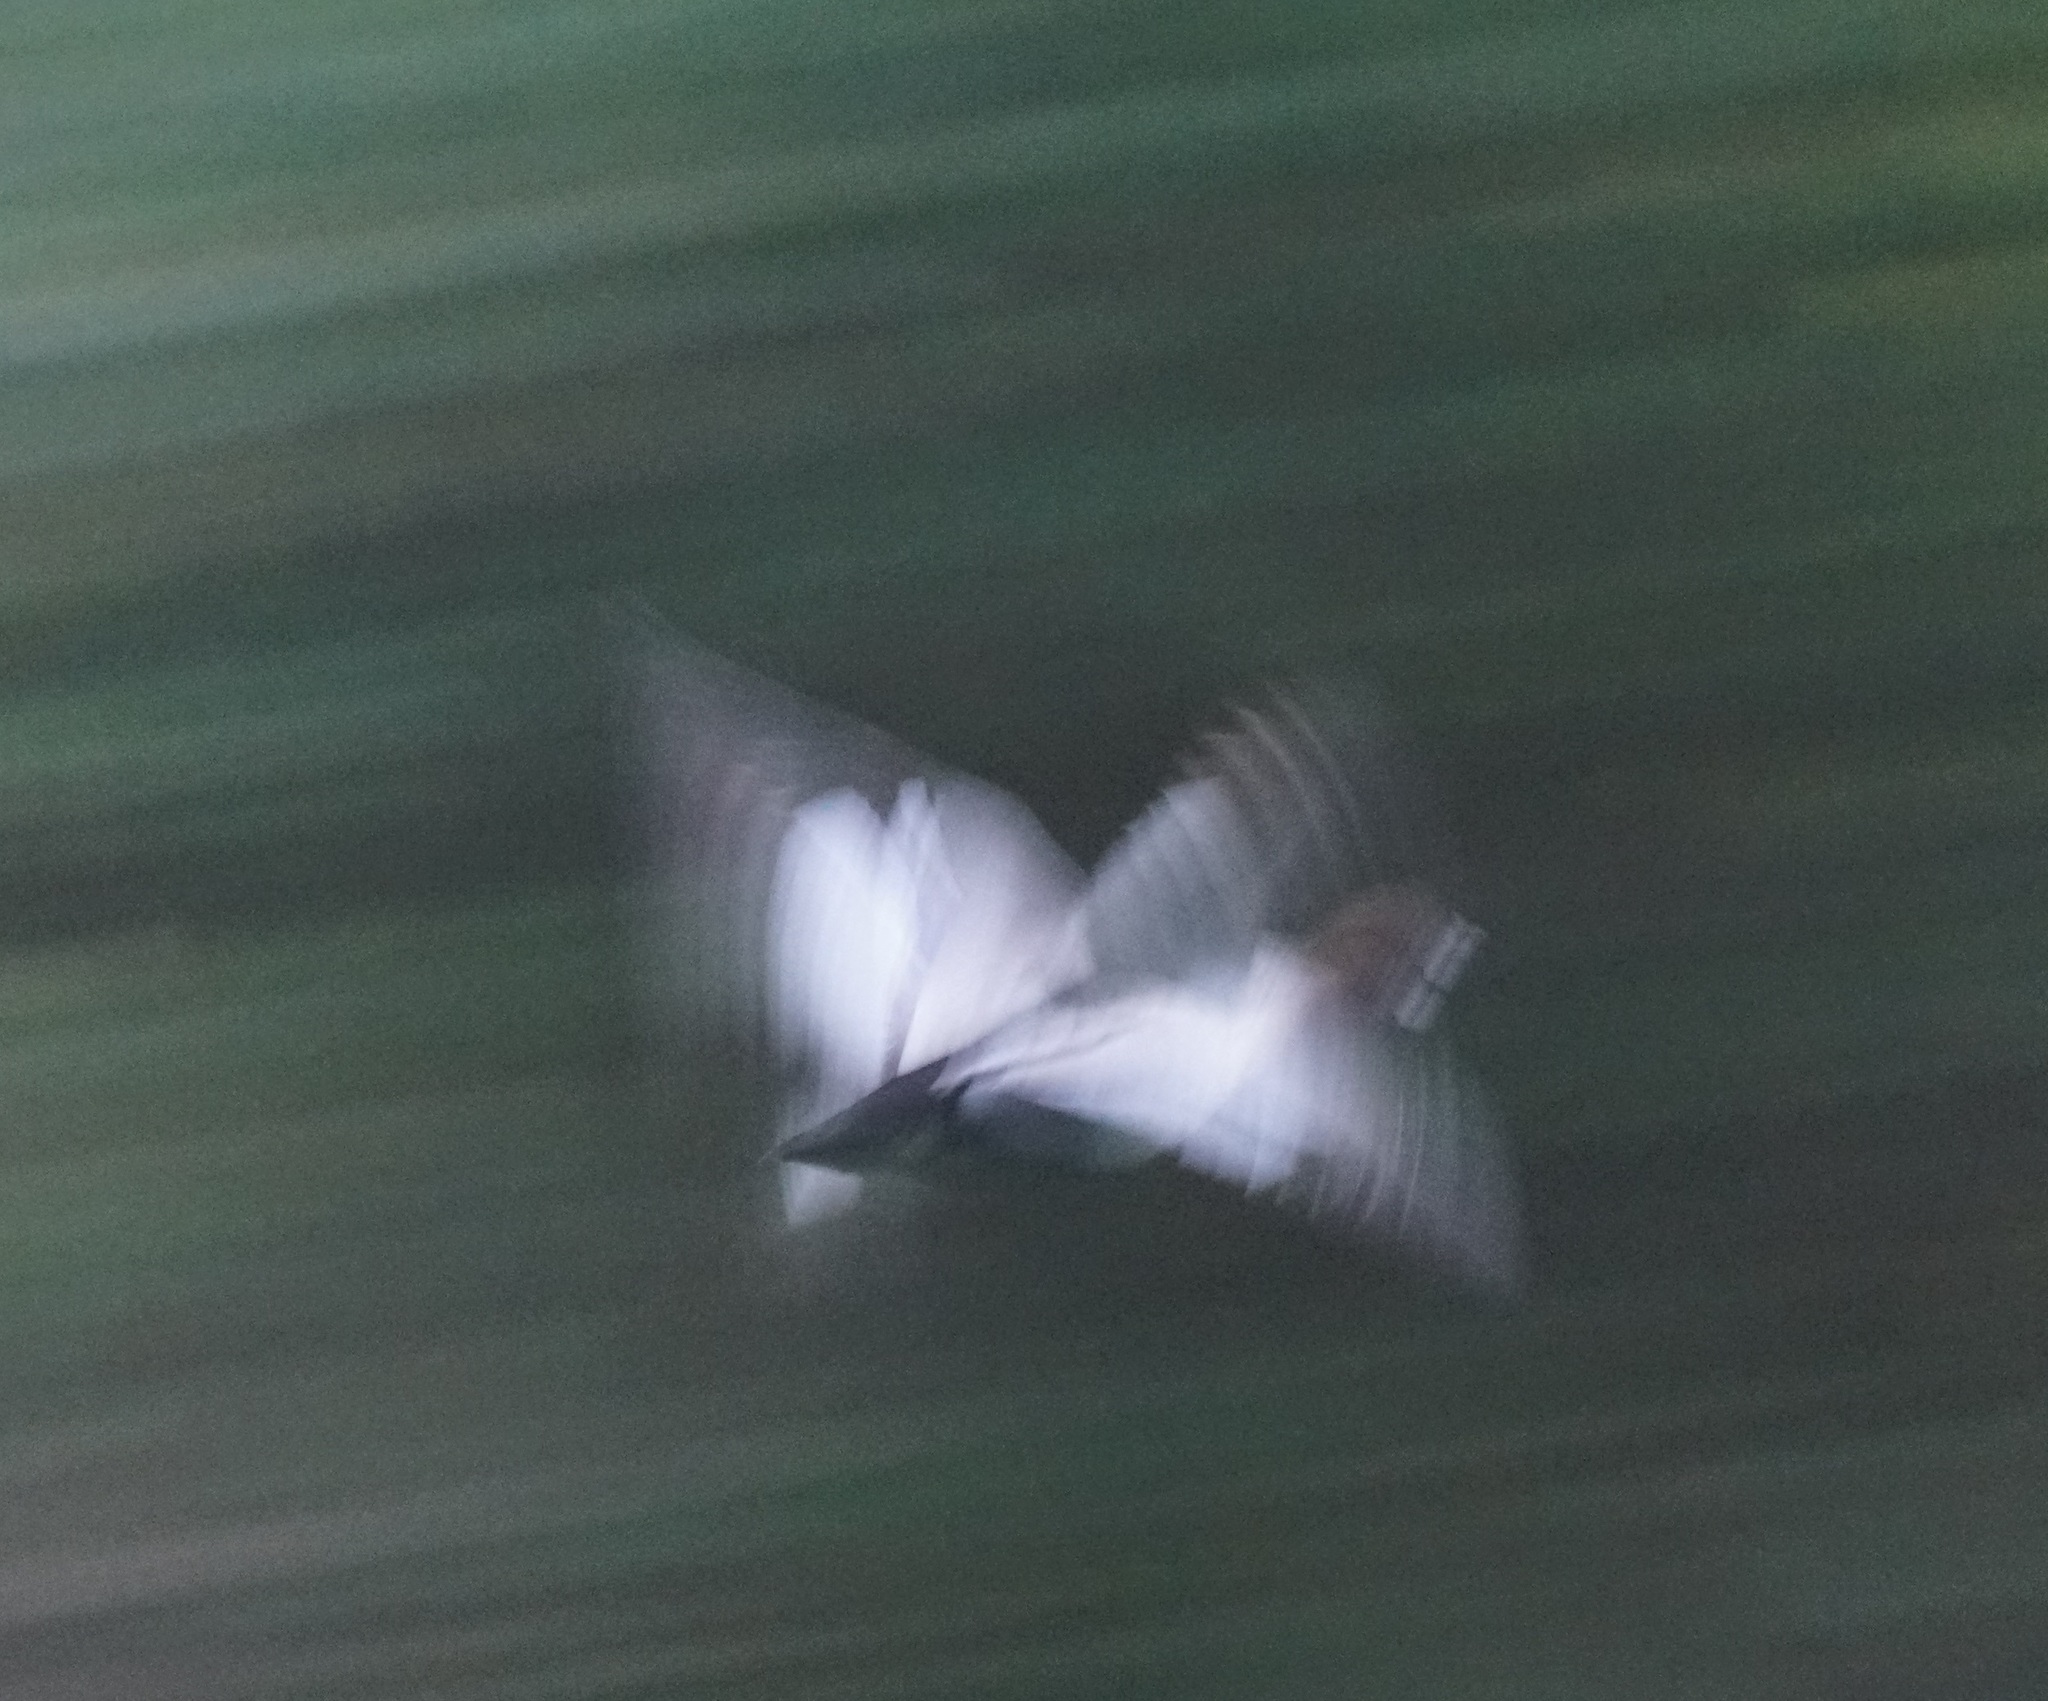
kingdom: Animalia
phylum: Chordata
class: Aves
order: Anseriformes
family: Anatidae
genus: Chenonetta
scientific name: Chenonetta jubata
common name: Maned duck
